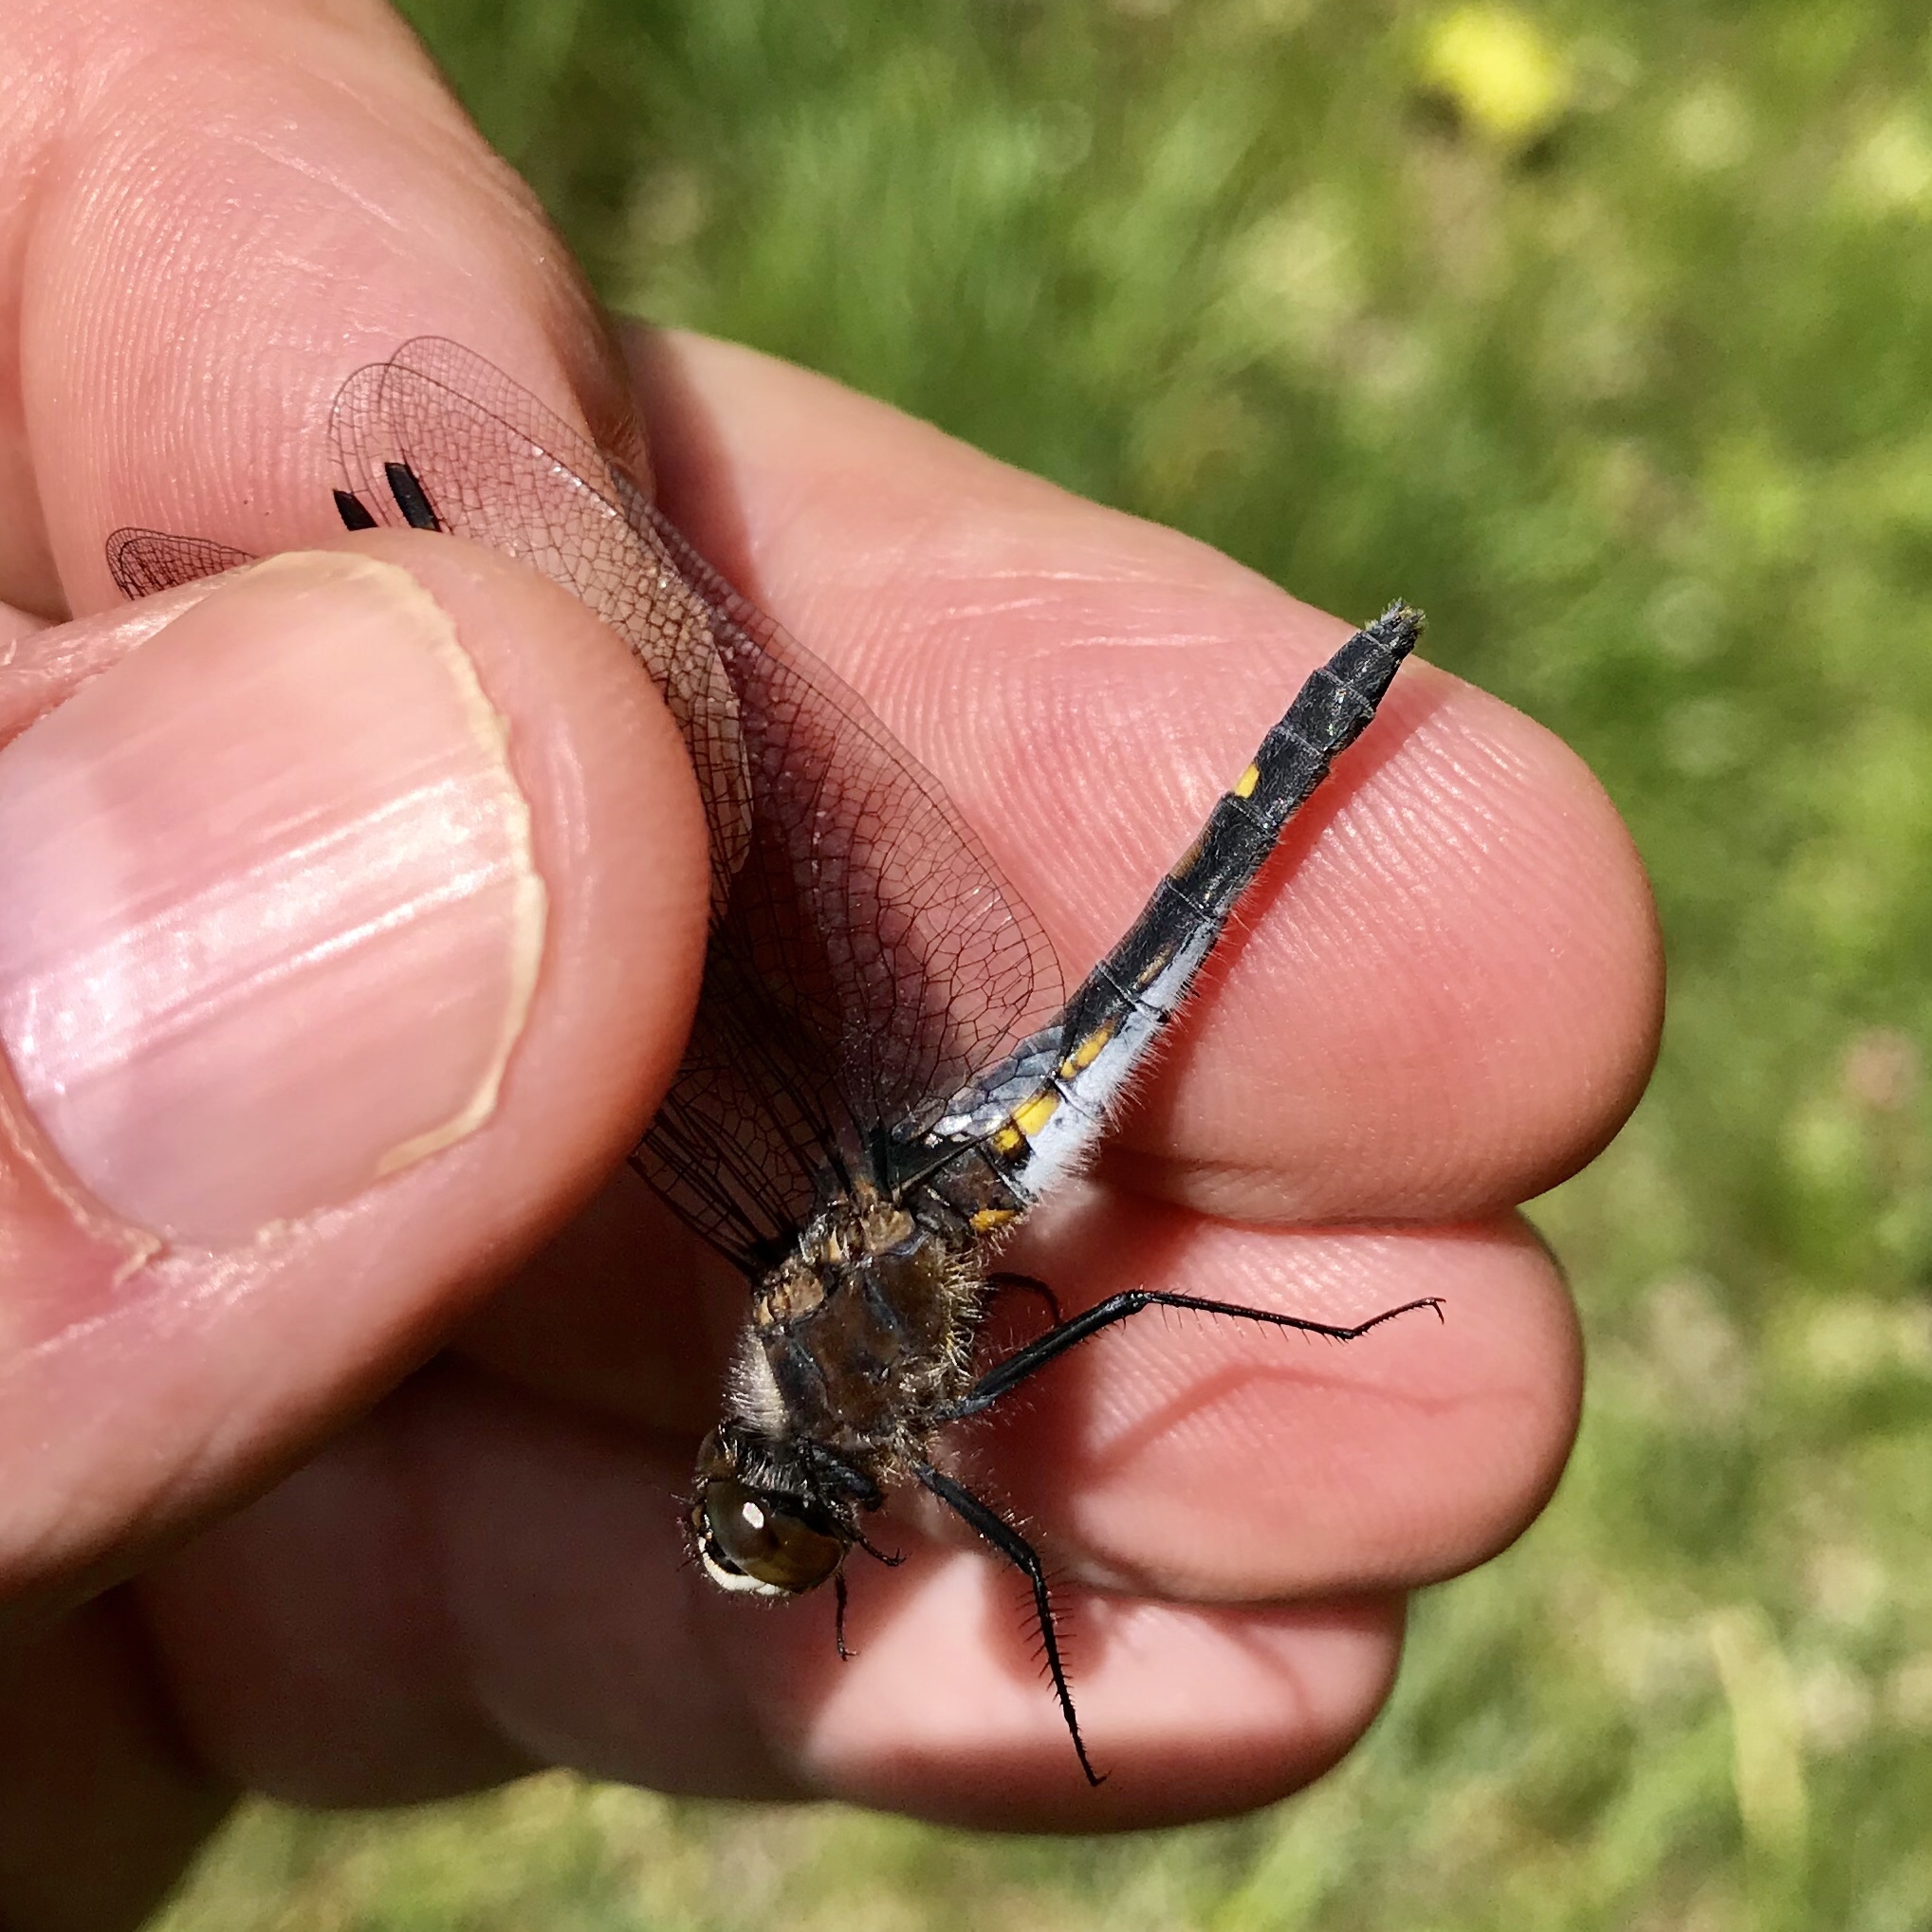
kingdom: Animalia
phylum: Arthropoda
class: Insecta
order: Odonata
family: Libellulidae
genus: Leucorrhinia
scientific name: Leucorrhinia intacta
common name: Dot-tailed whiteface
